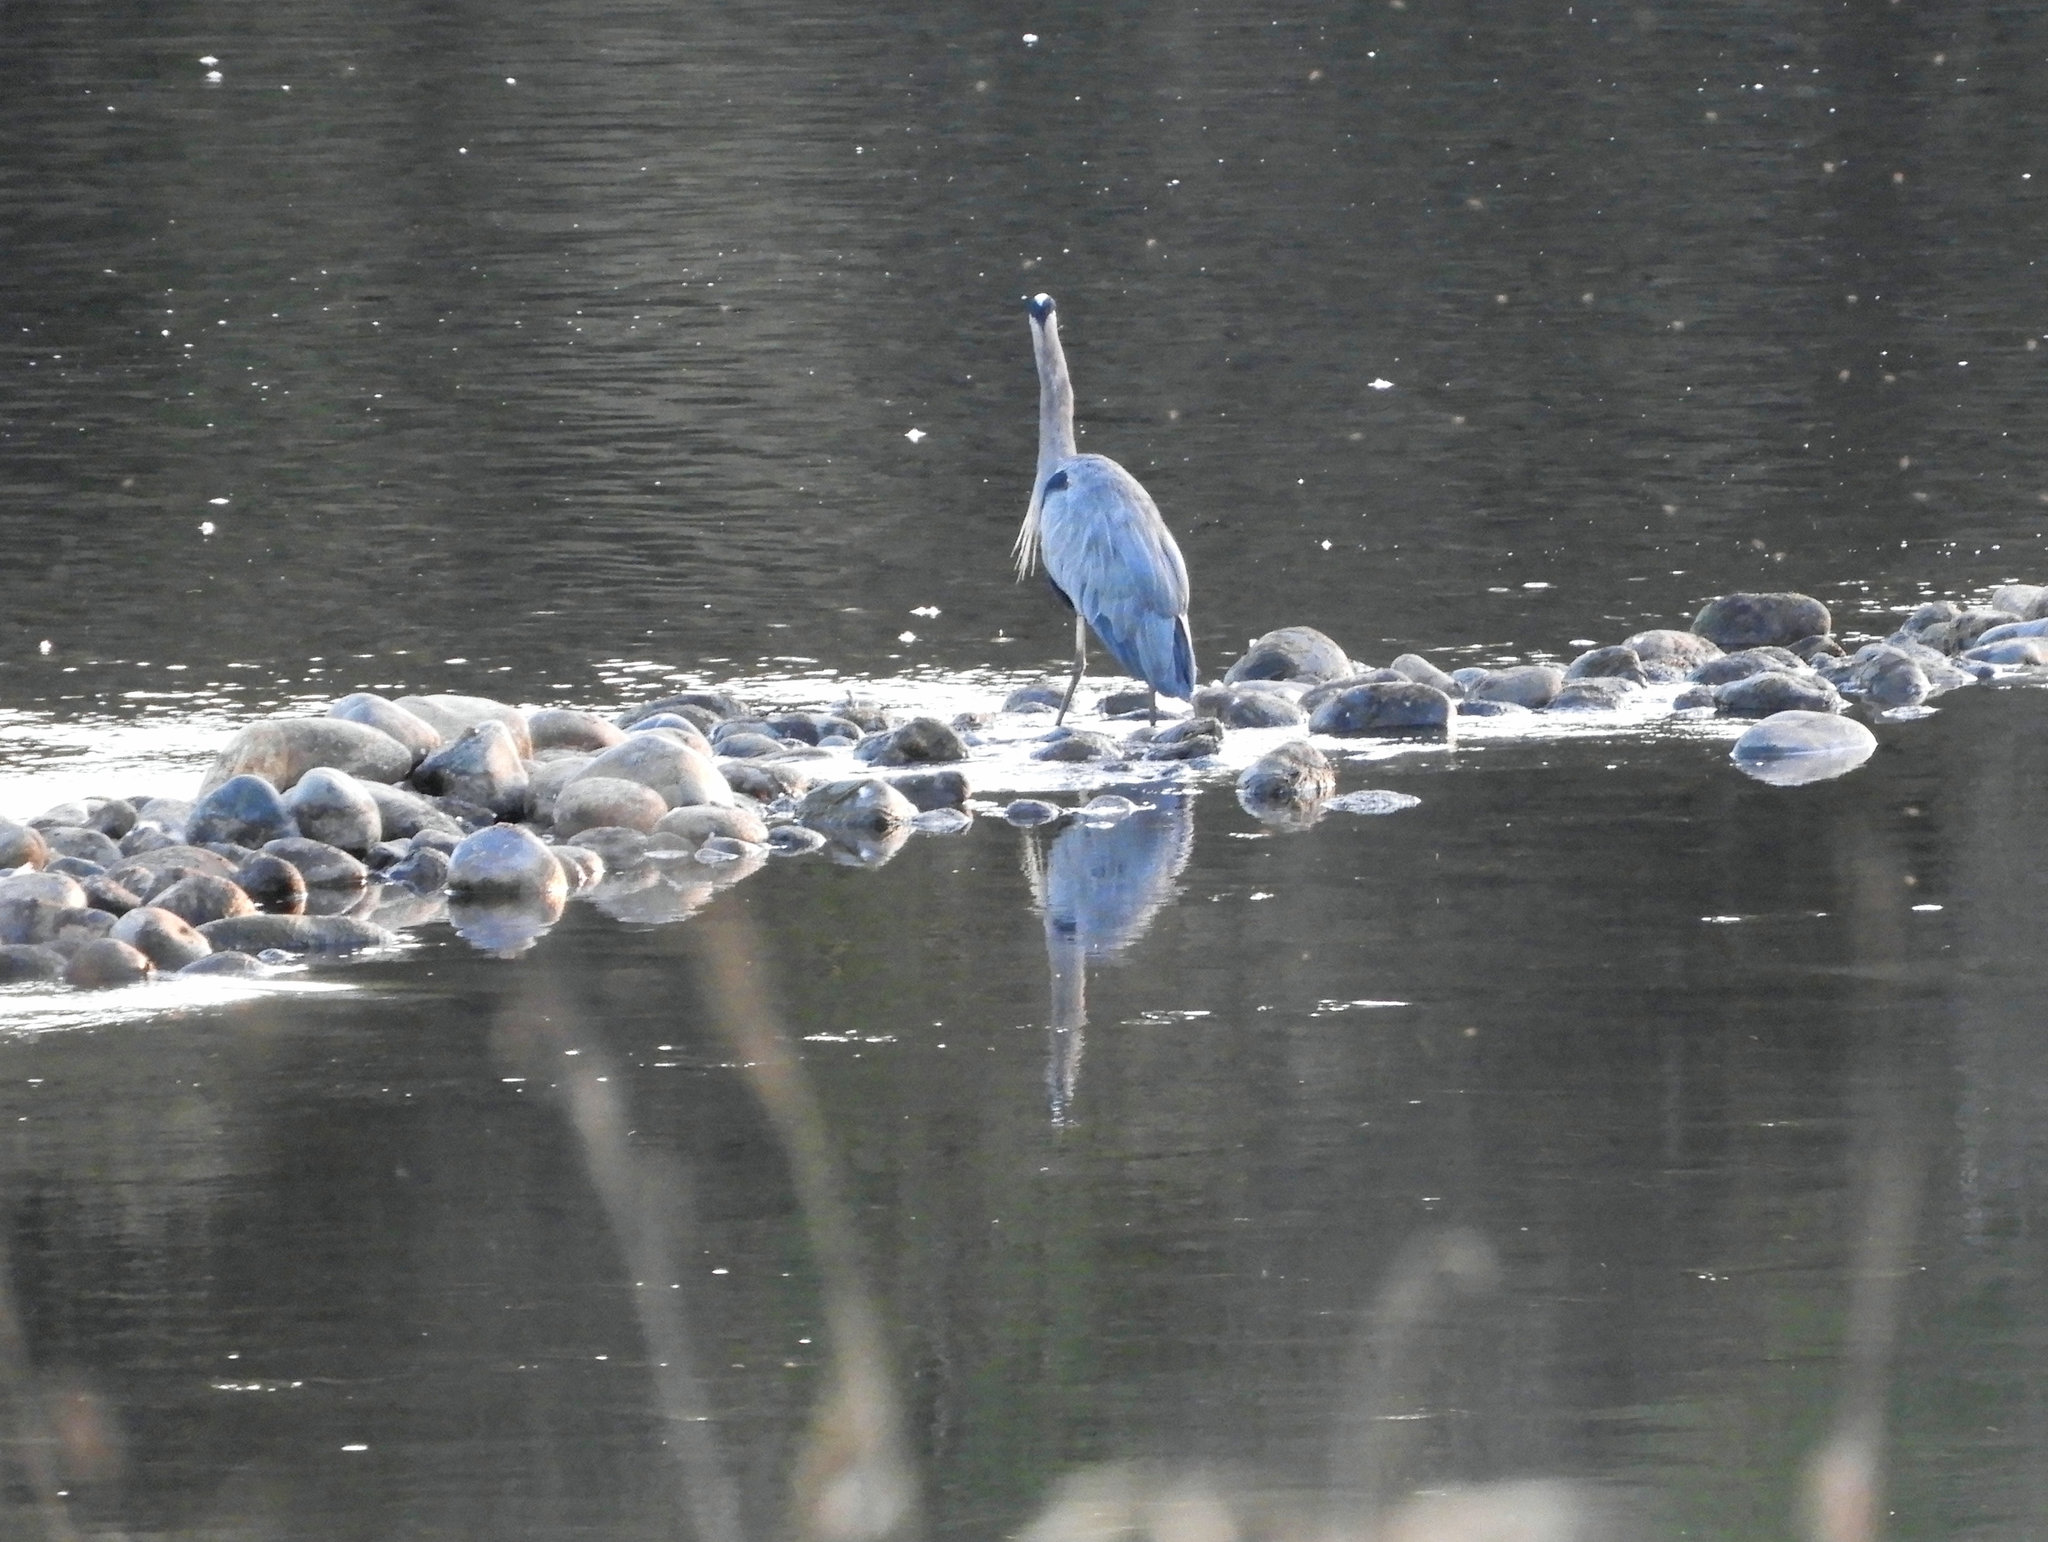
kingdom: Animalia
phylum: Chordata
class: Aves
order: Pelecaniformes
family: Ardeidae
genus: Ardea
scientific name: Ardea herodias
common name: Great blue heron
